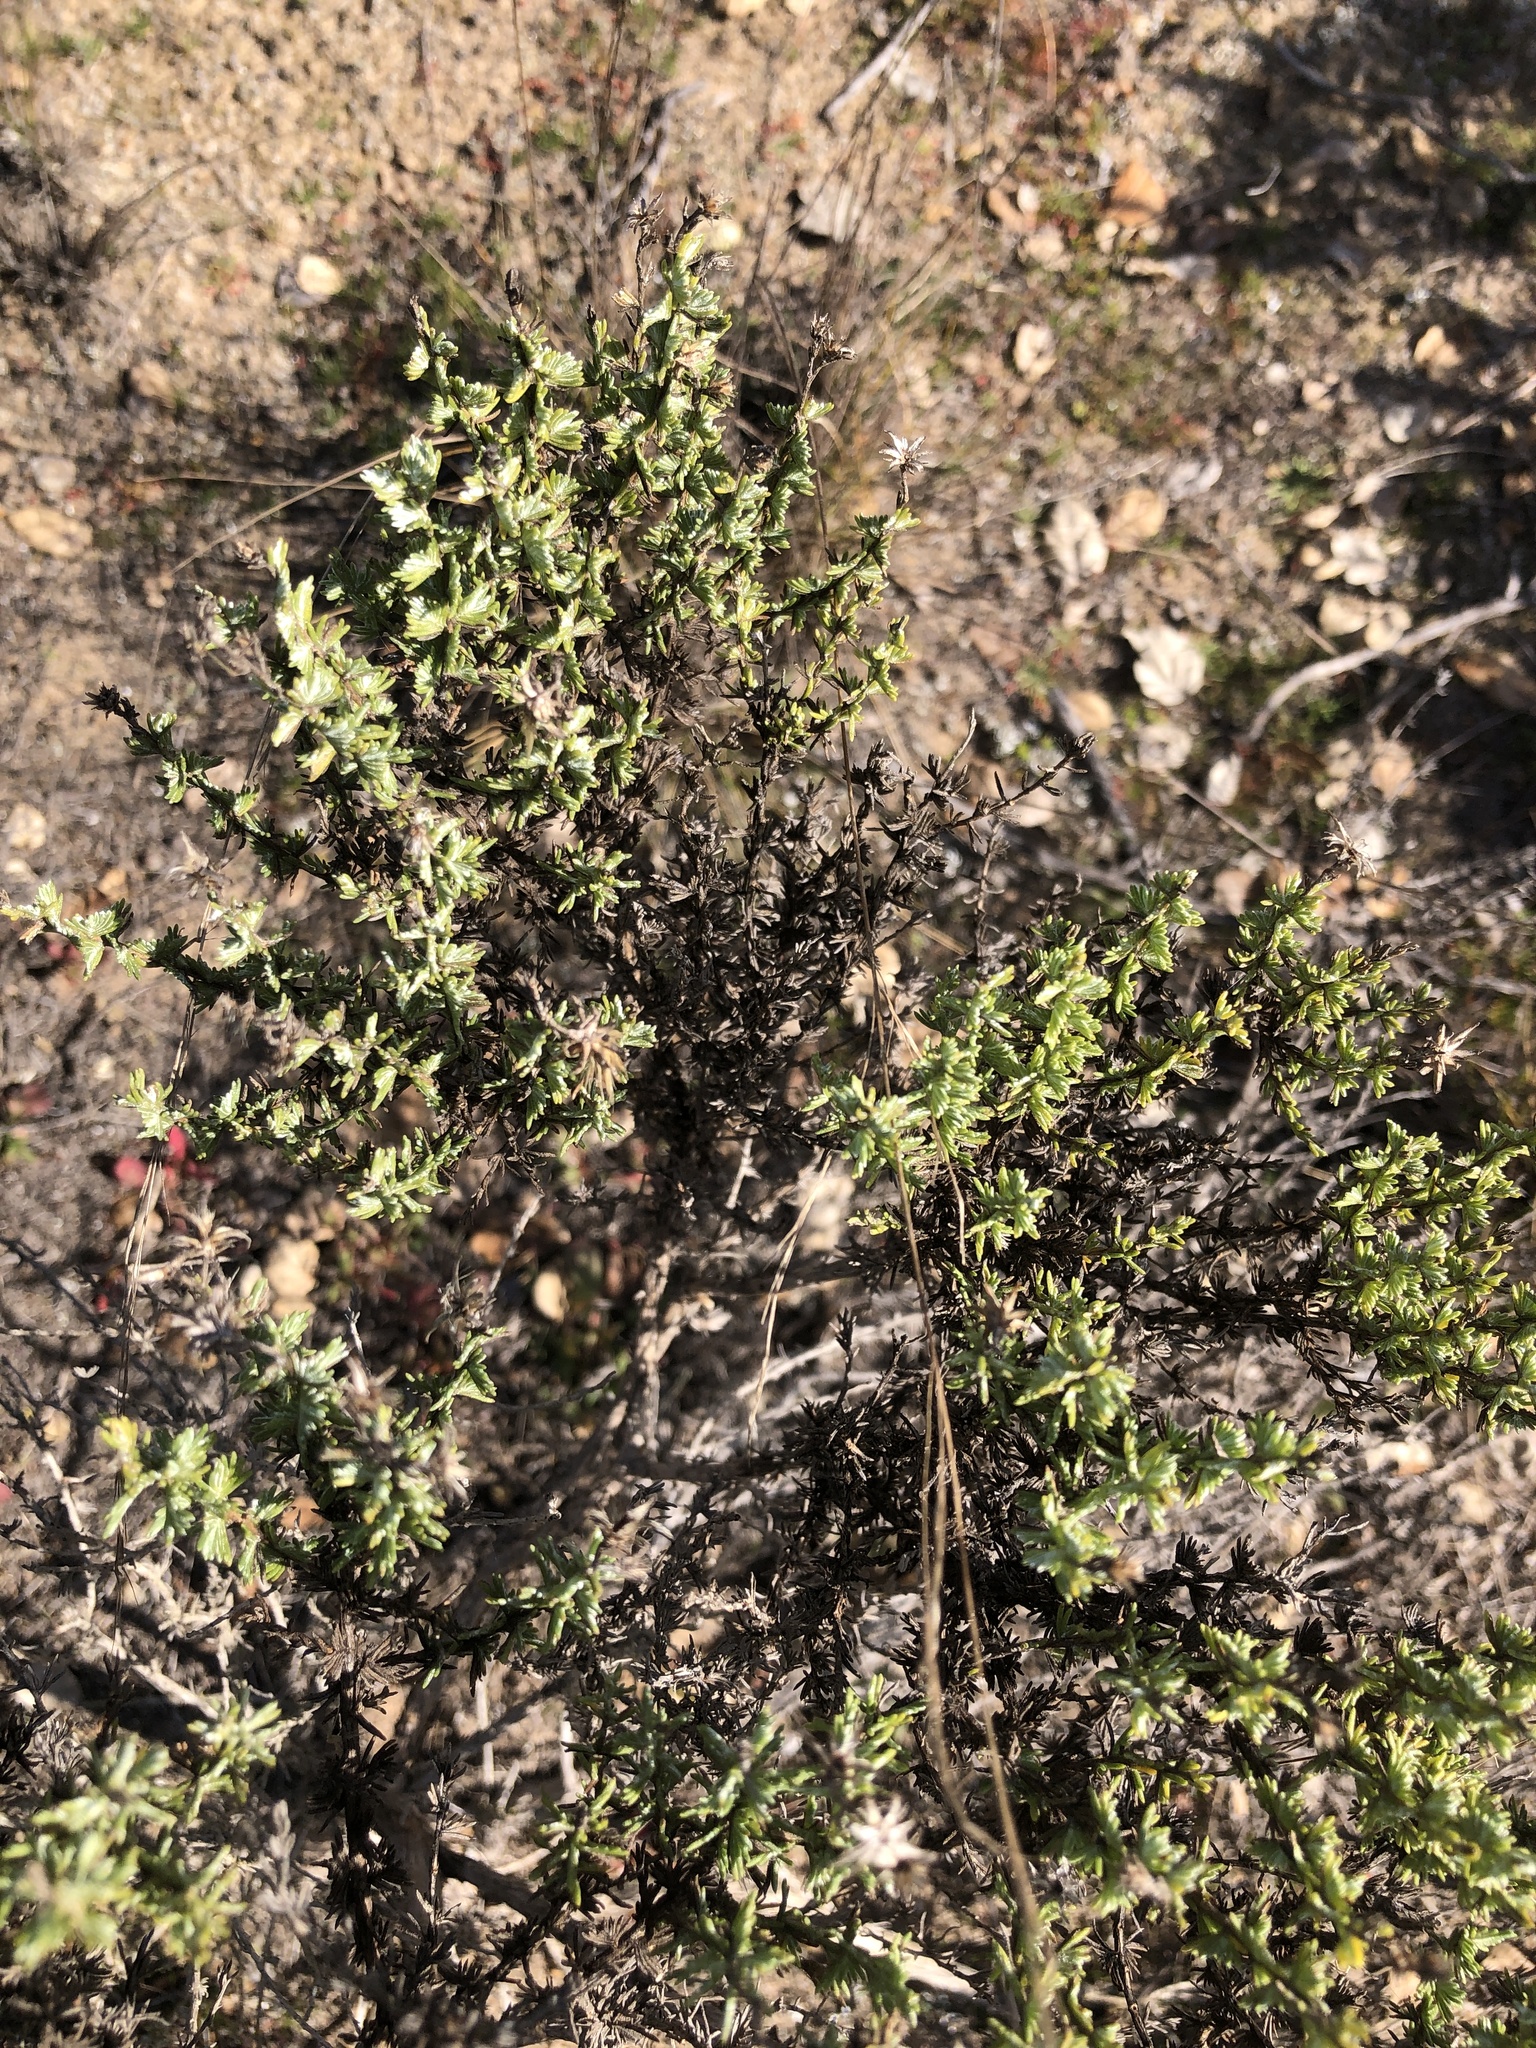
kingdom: Plantae
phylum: Tracheophyta
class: Magnoliopsida
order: Asterales
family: Asteraceae
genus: Ericameria
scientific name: Ericameria ericoides
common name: California goldenbush
